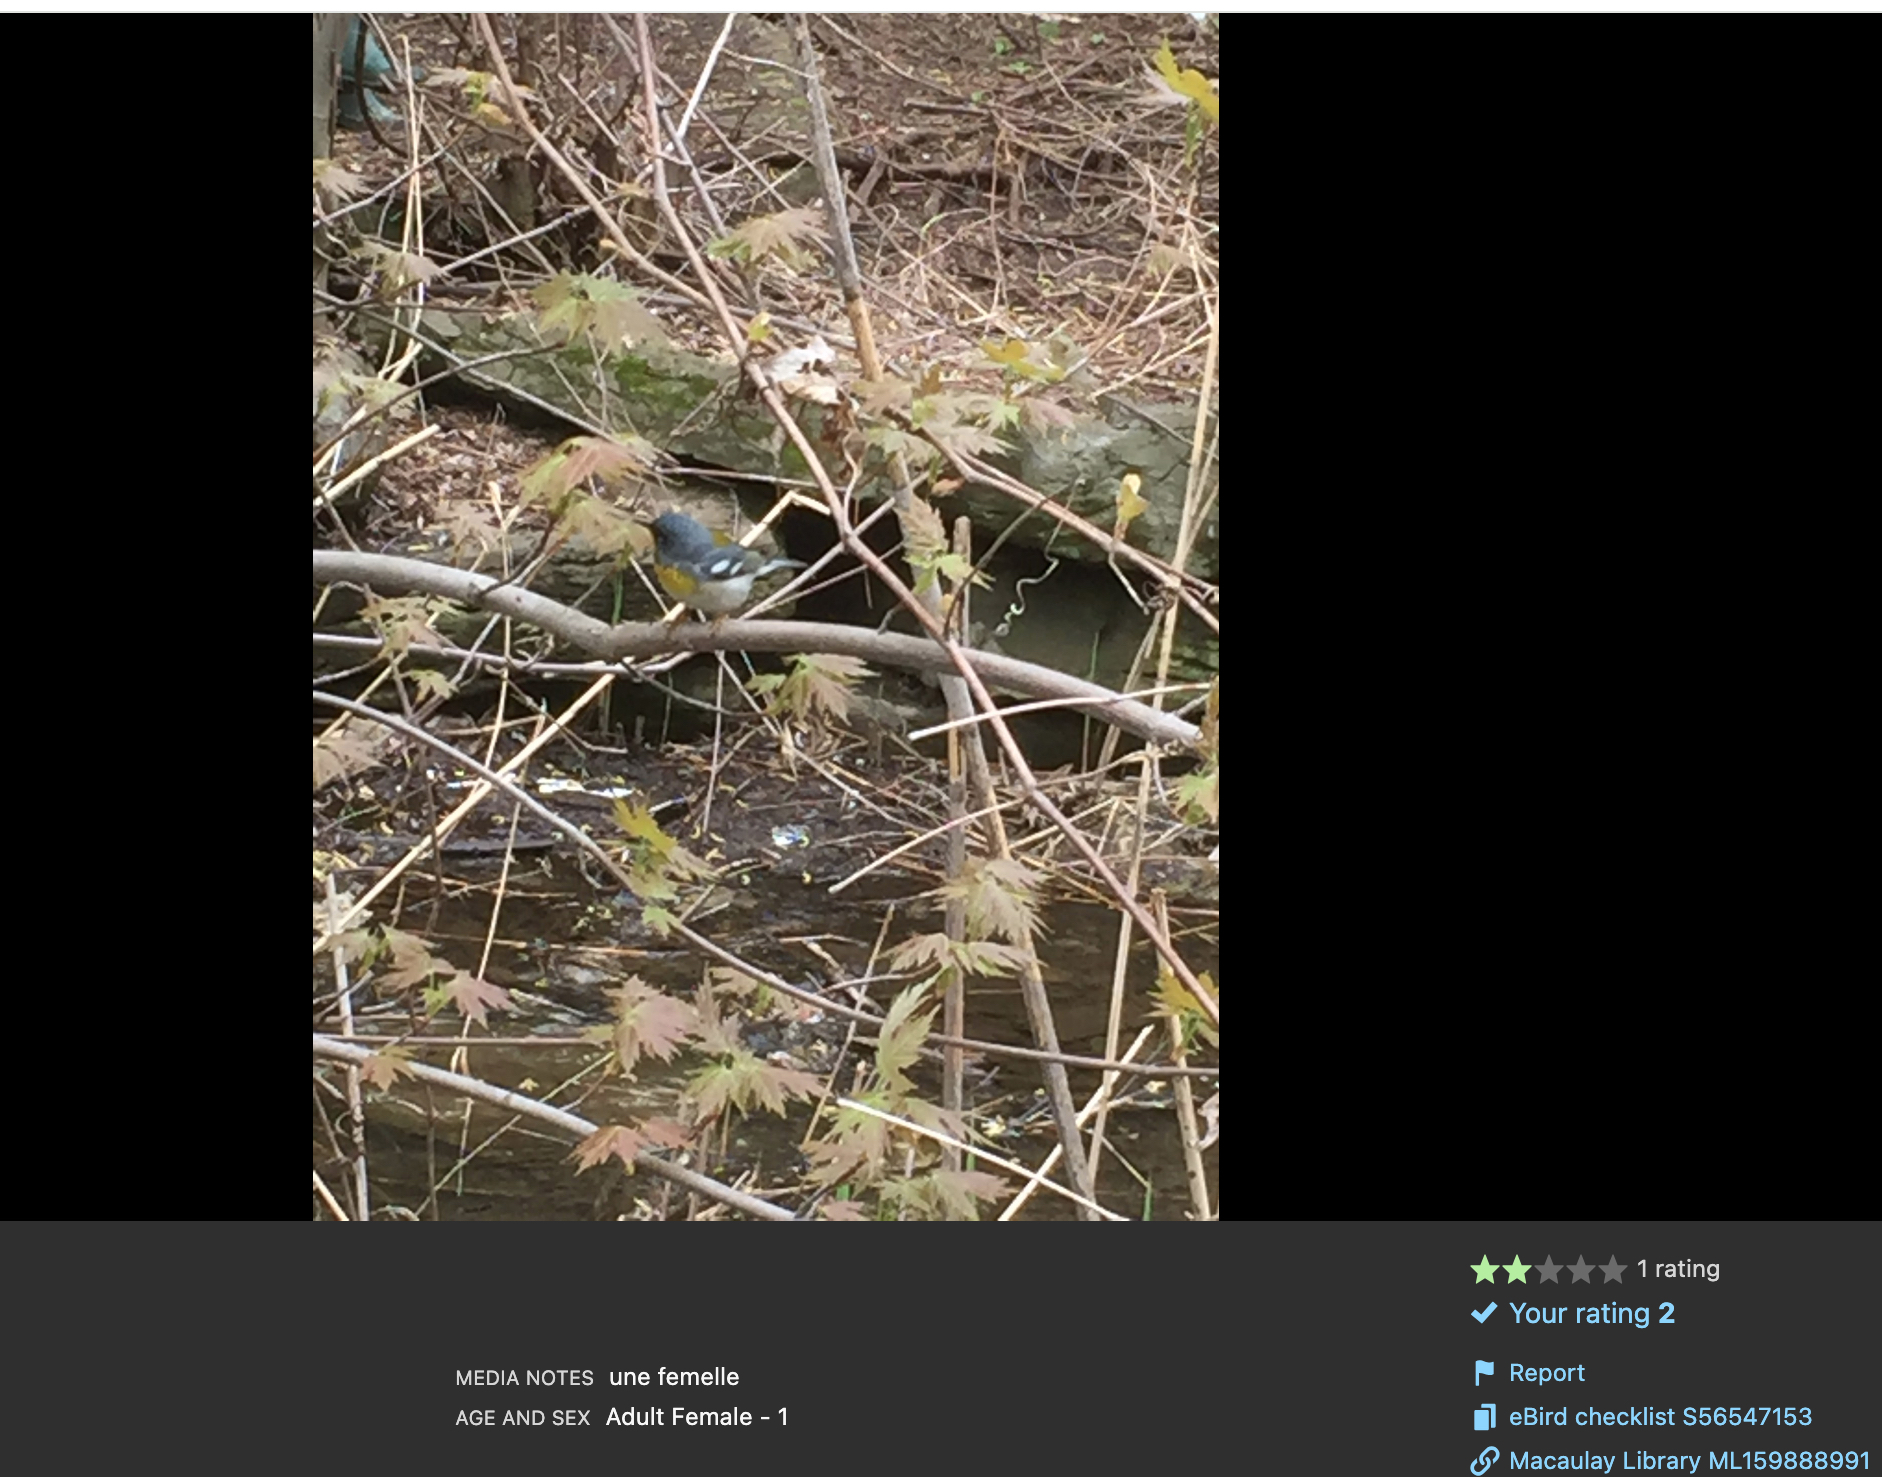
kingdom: Animalia
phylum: Chordata
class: Aves
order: Passeriformes
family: Parulidae
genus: Setophaga
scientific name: Setophaga americana
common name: Northern parula
